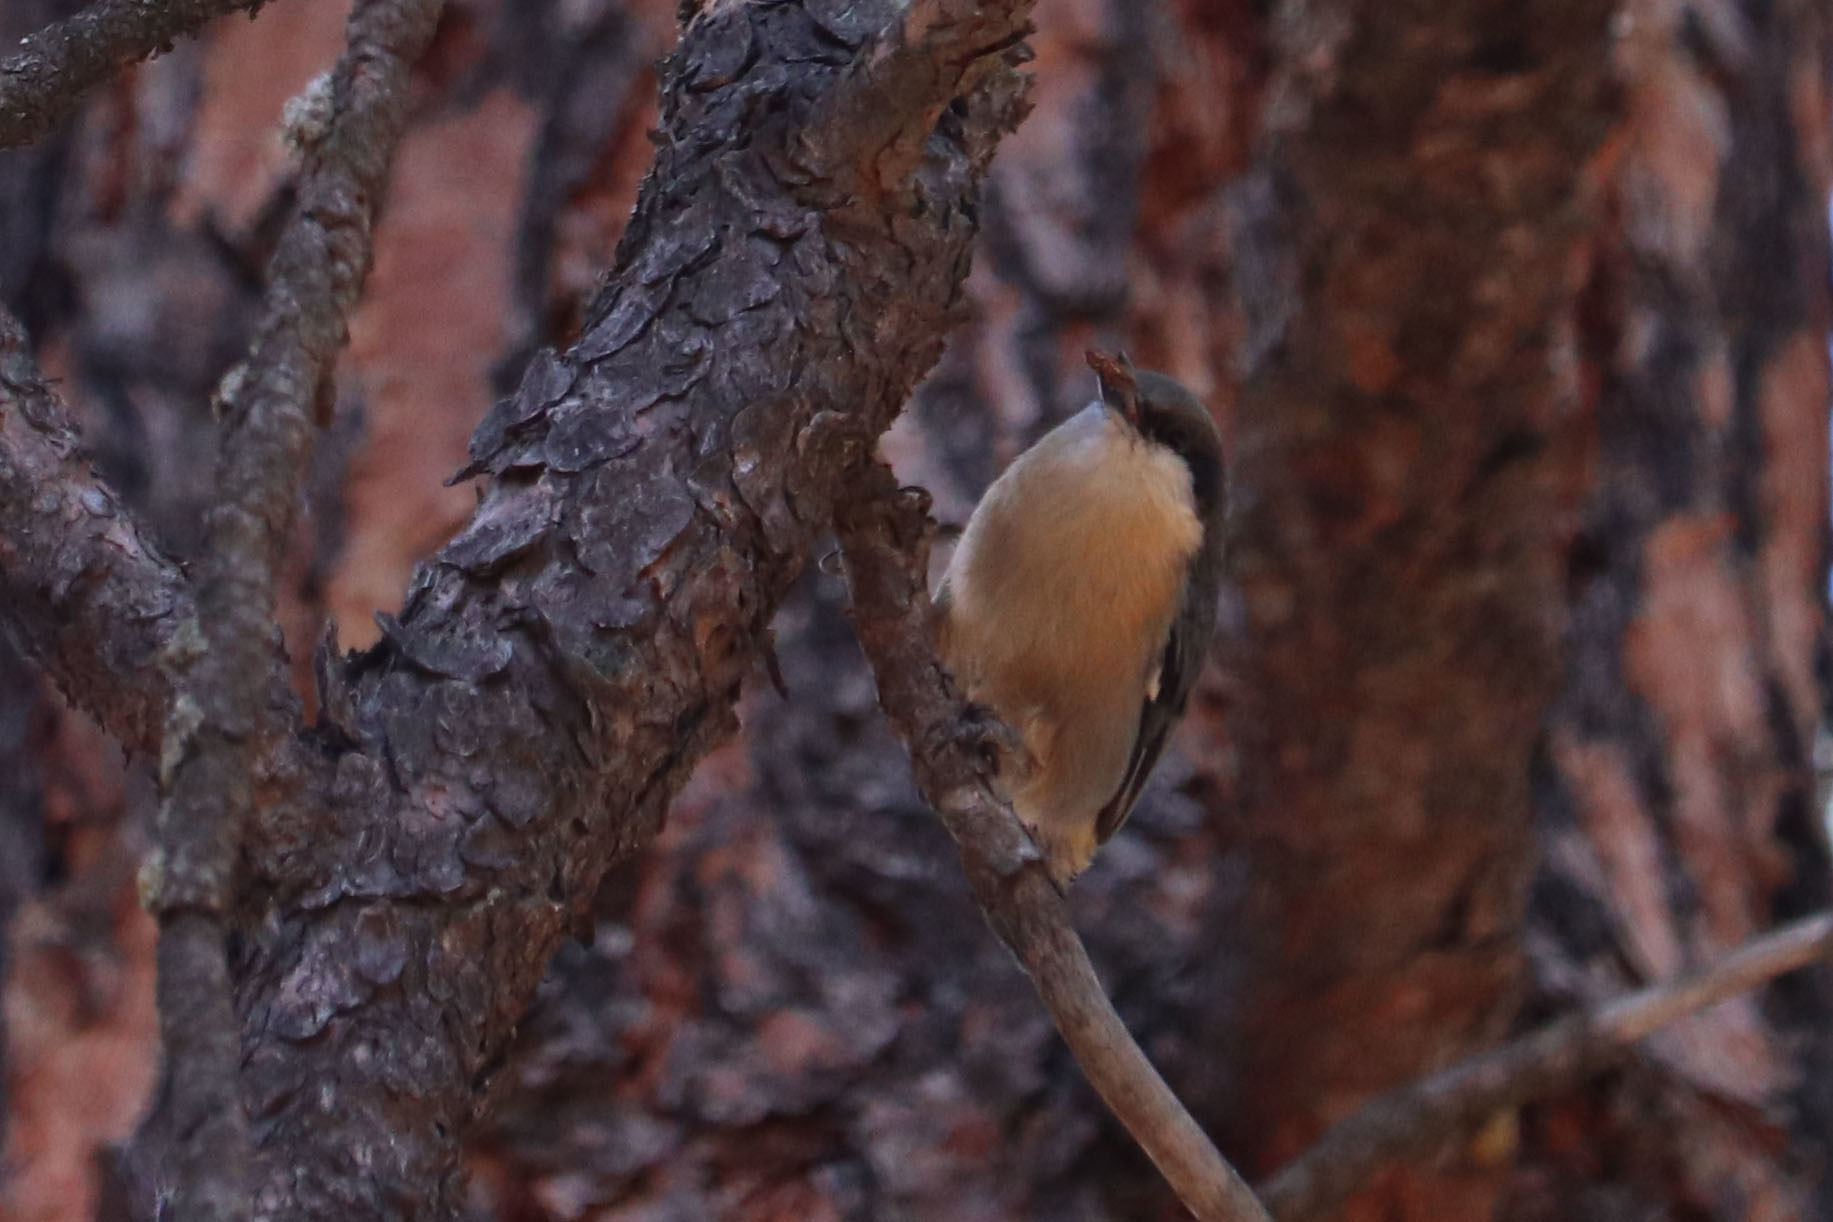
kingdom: Animalia
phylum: Chordata
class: Aves
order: Passeriformes
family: Sittidae
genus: Sitta
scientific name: Sitta pygmaea
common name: Pygmy nuthatch
